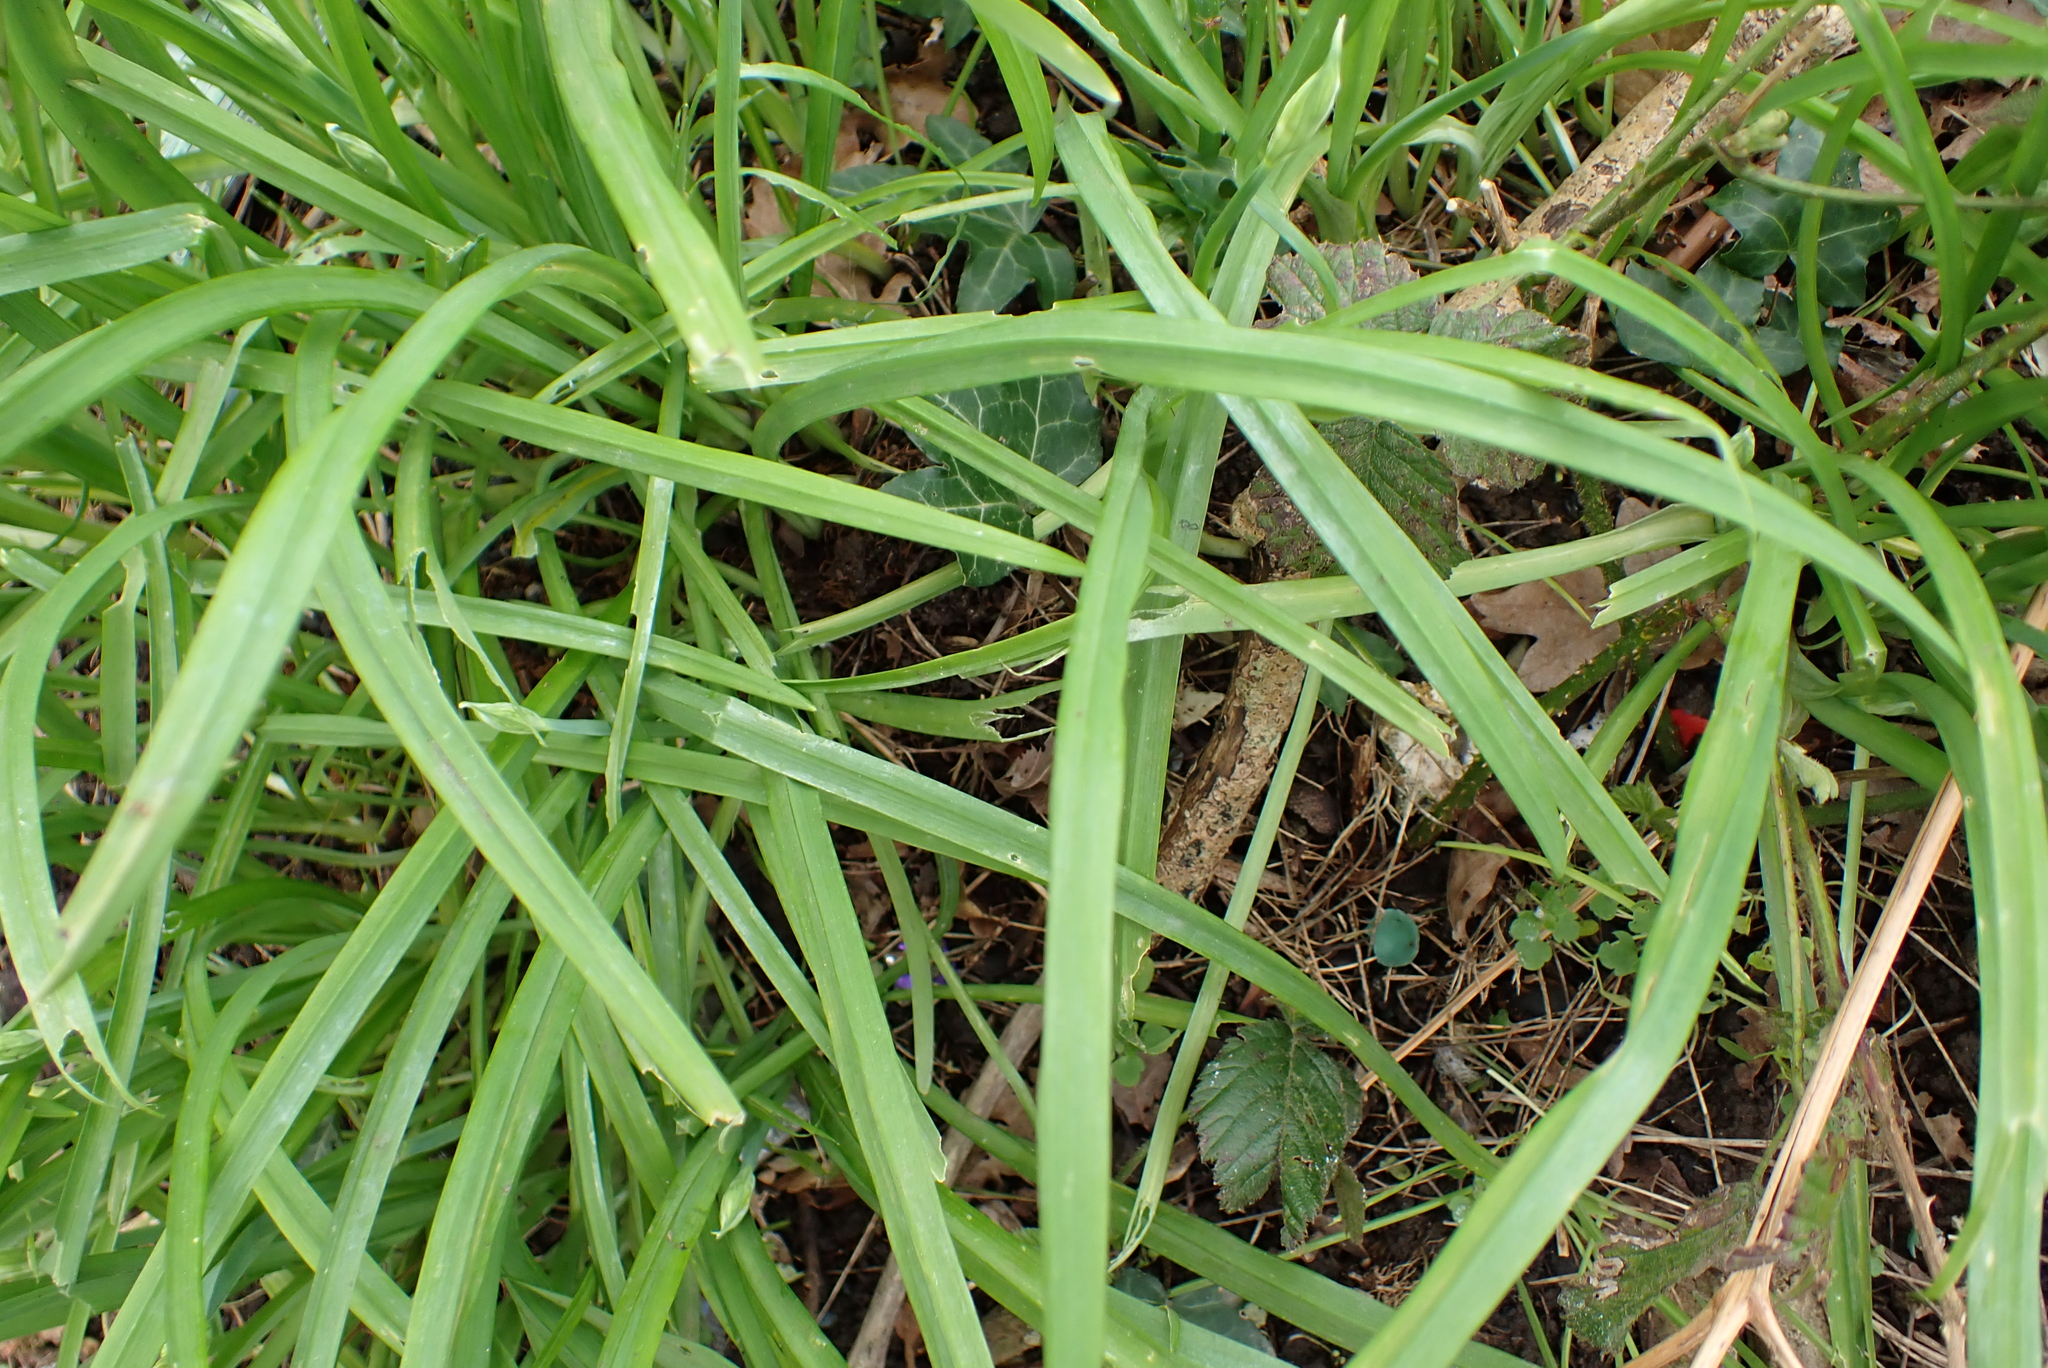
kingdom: Plantae
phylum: Tracheophyta
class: Liliopsida
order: Asparagales
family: Amaryllidaceae
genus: Allium
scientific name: Allium triquetrum
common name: Three-cornered garlic
